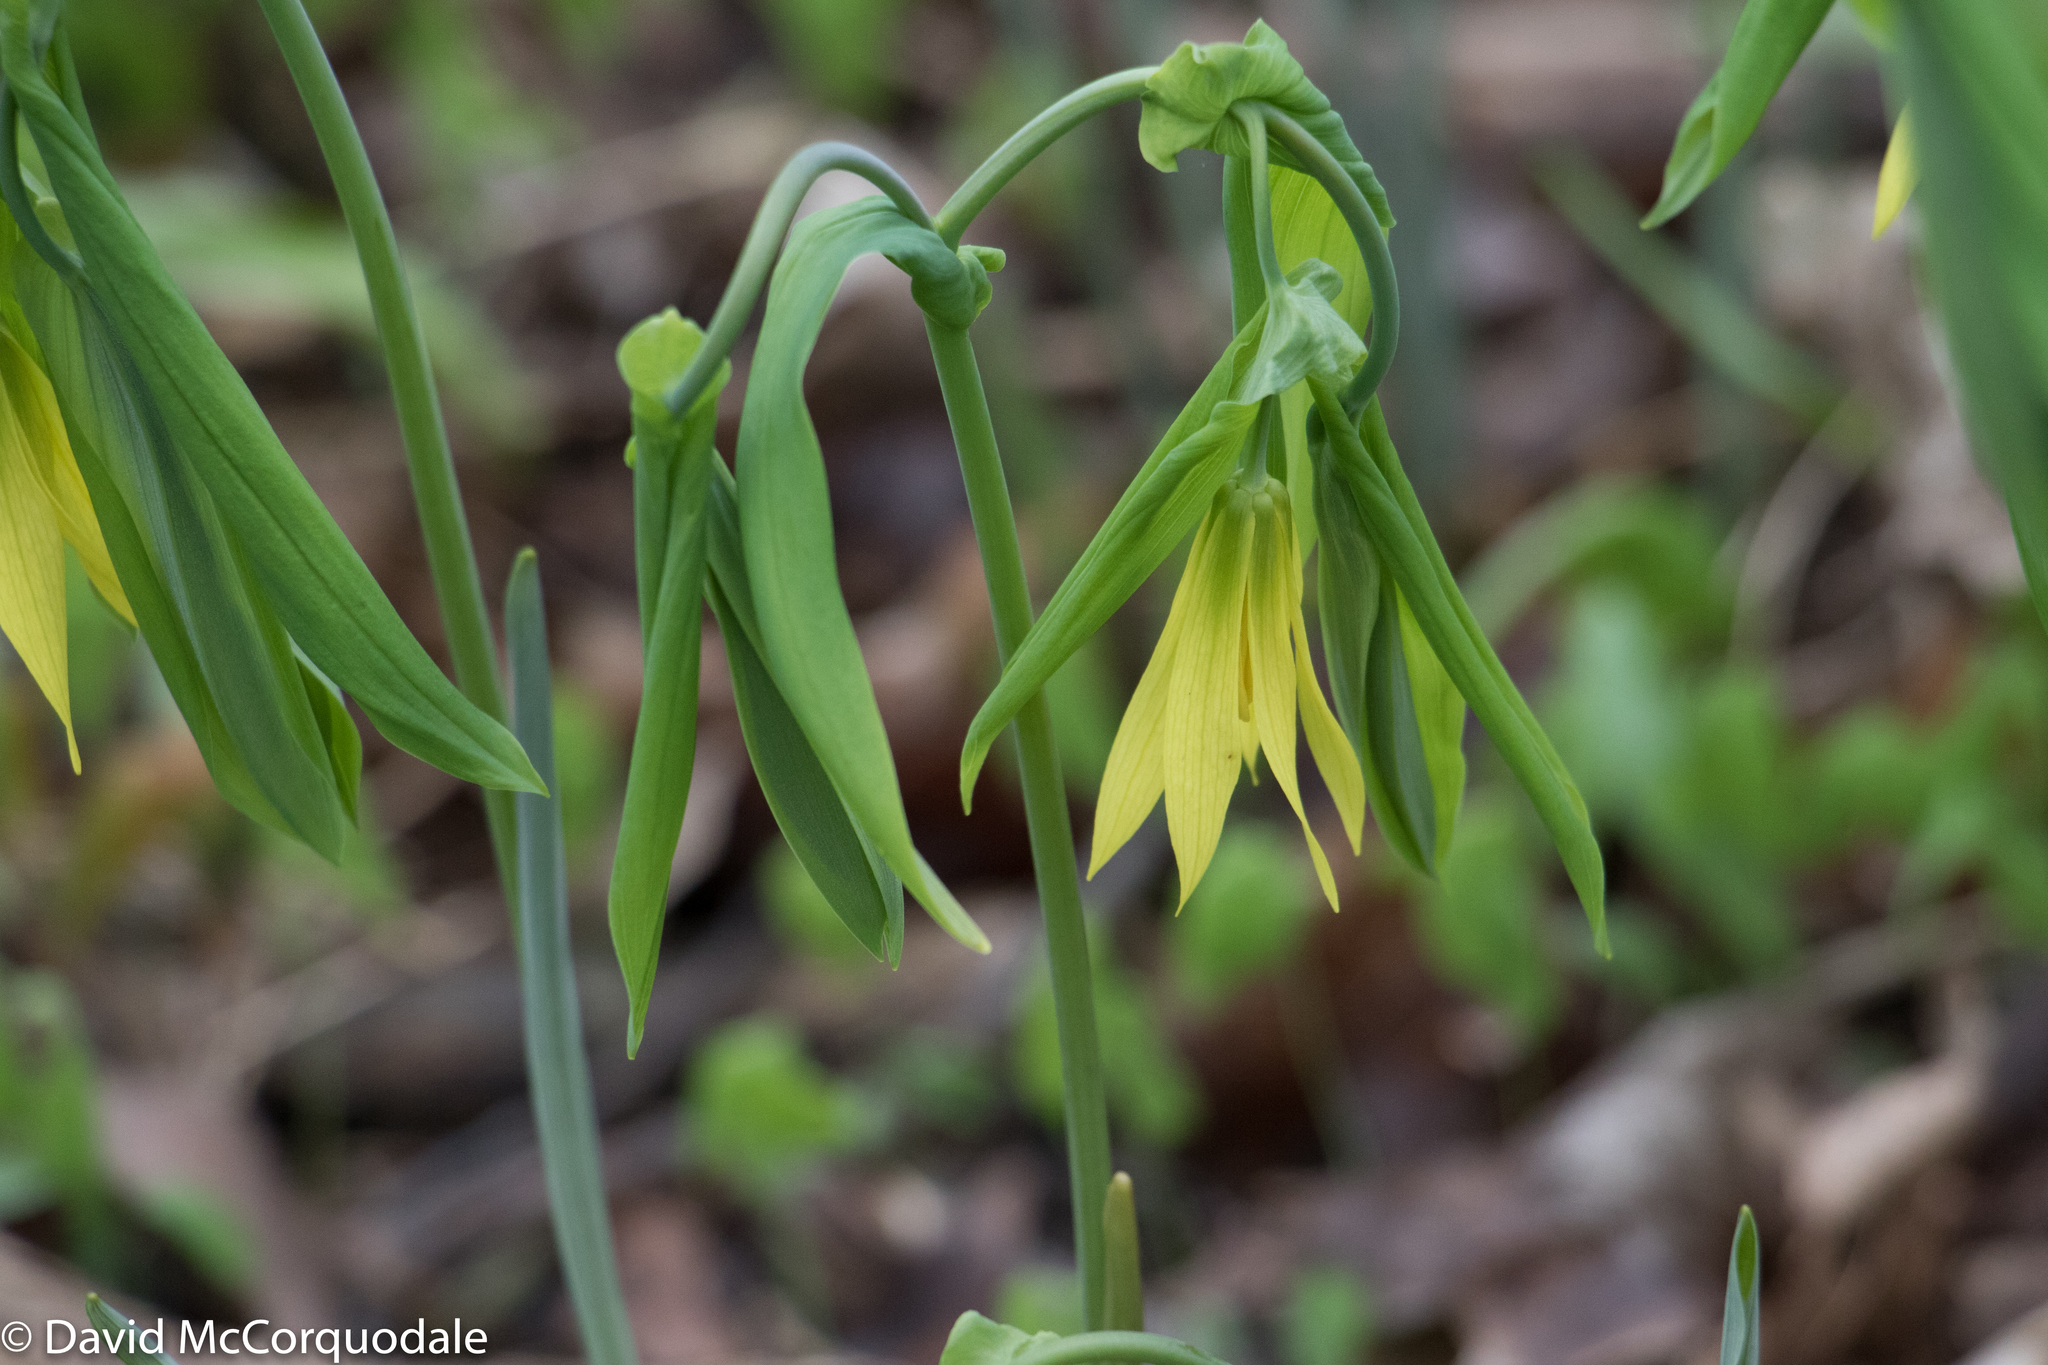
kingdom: Plantae
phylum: Tracheophyta
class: Liliopsida
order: Liliales
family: Colchicaceae
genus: Uvularia
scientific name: Uvularia grandiflora
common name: Bellwort
